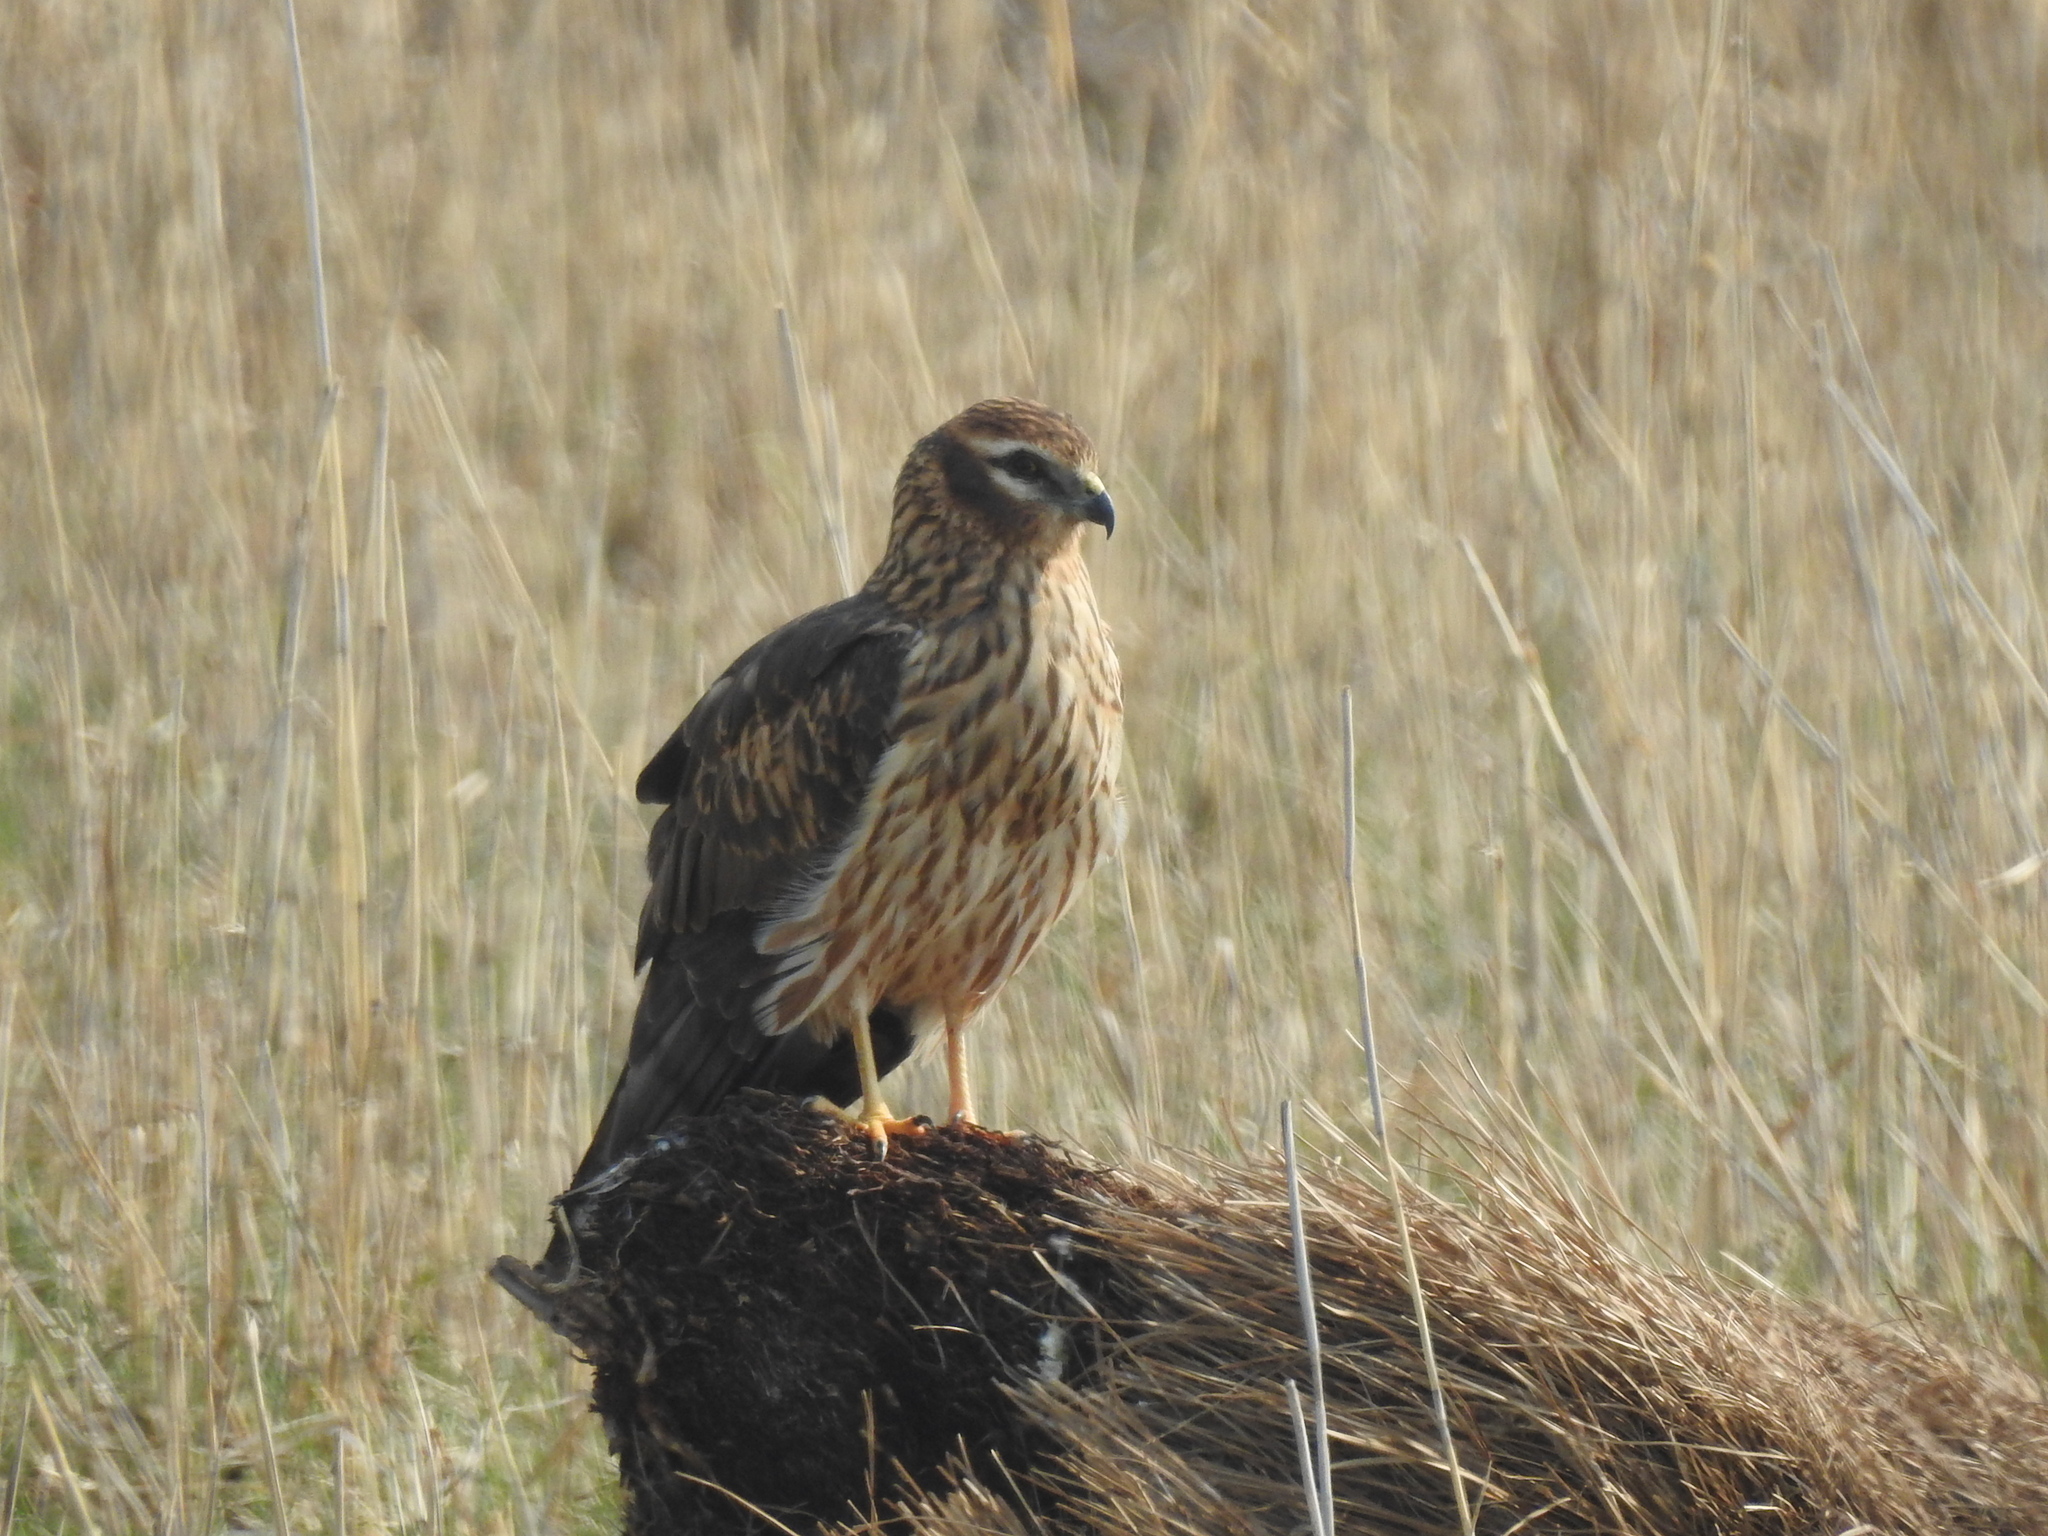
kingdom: Animalia
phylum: Chordata
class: Aves
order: Accipitriformes
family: Accipitridae
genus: Circus
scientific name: Circus pygargus
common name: Montagu's harrier
